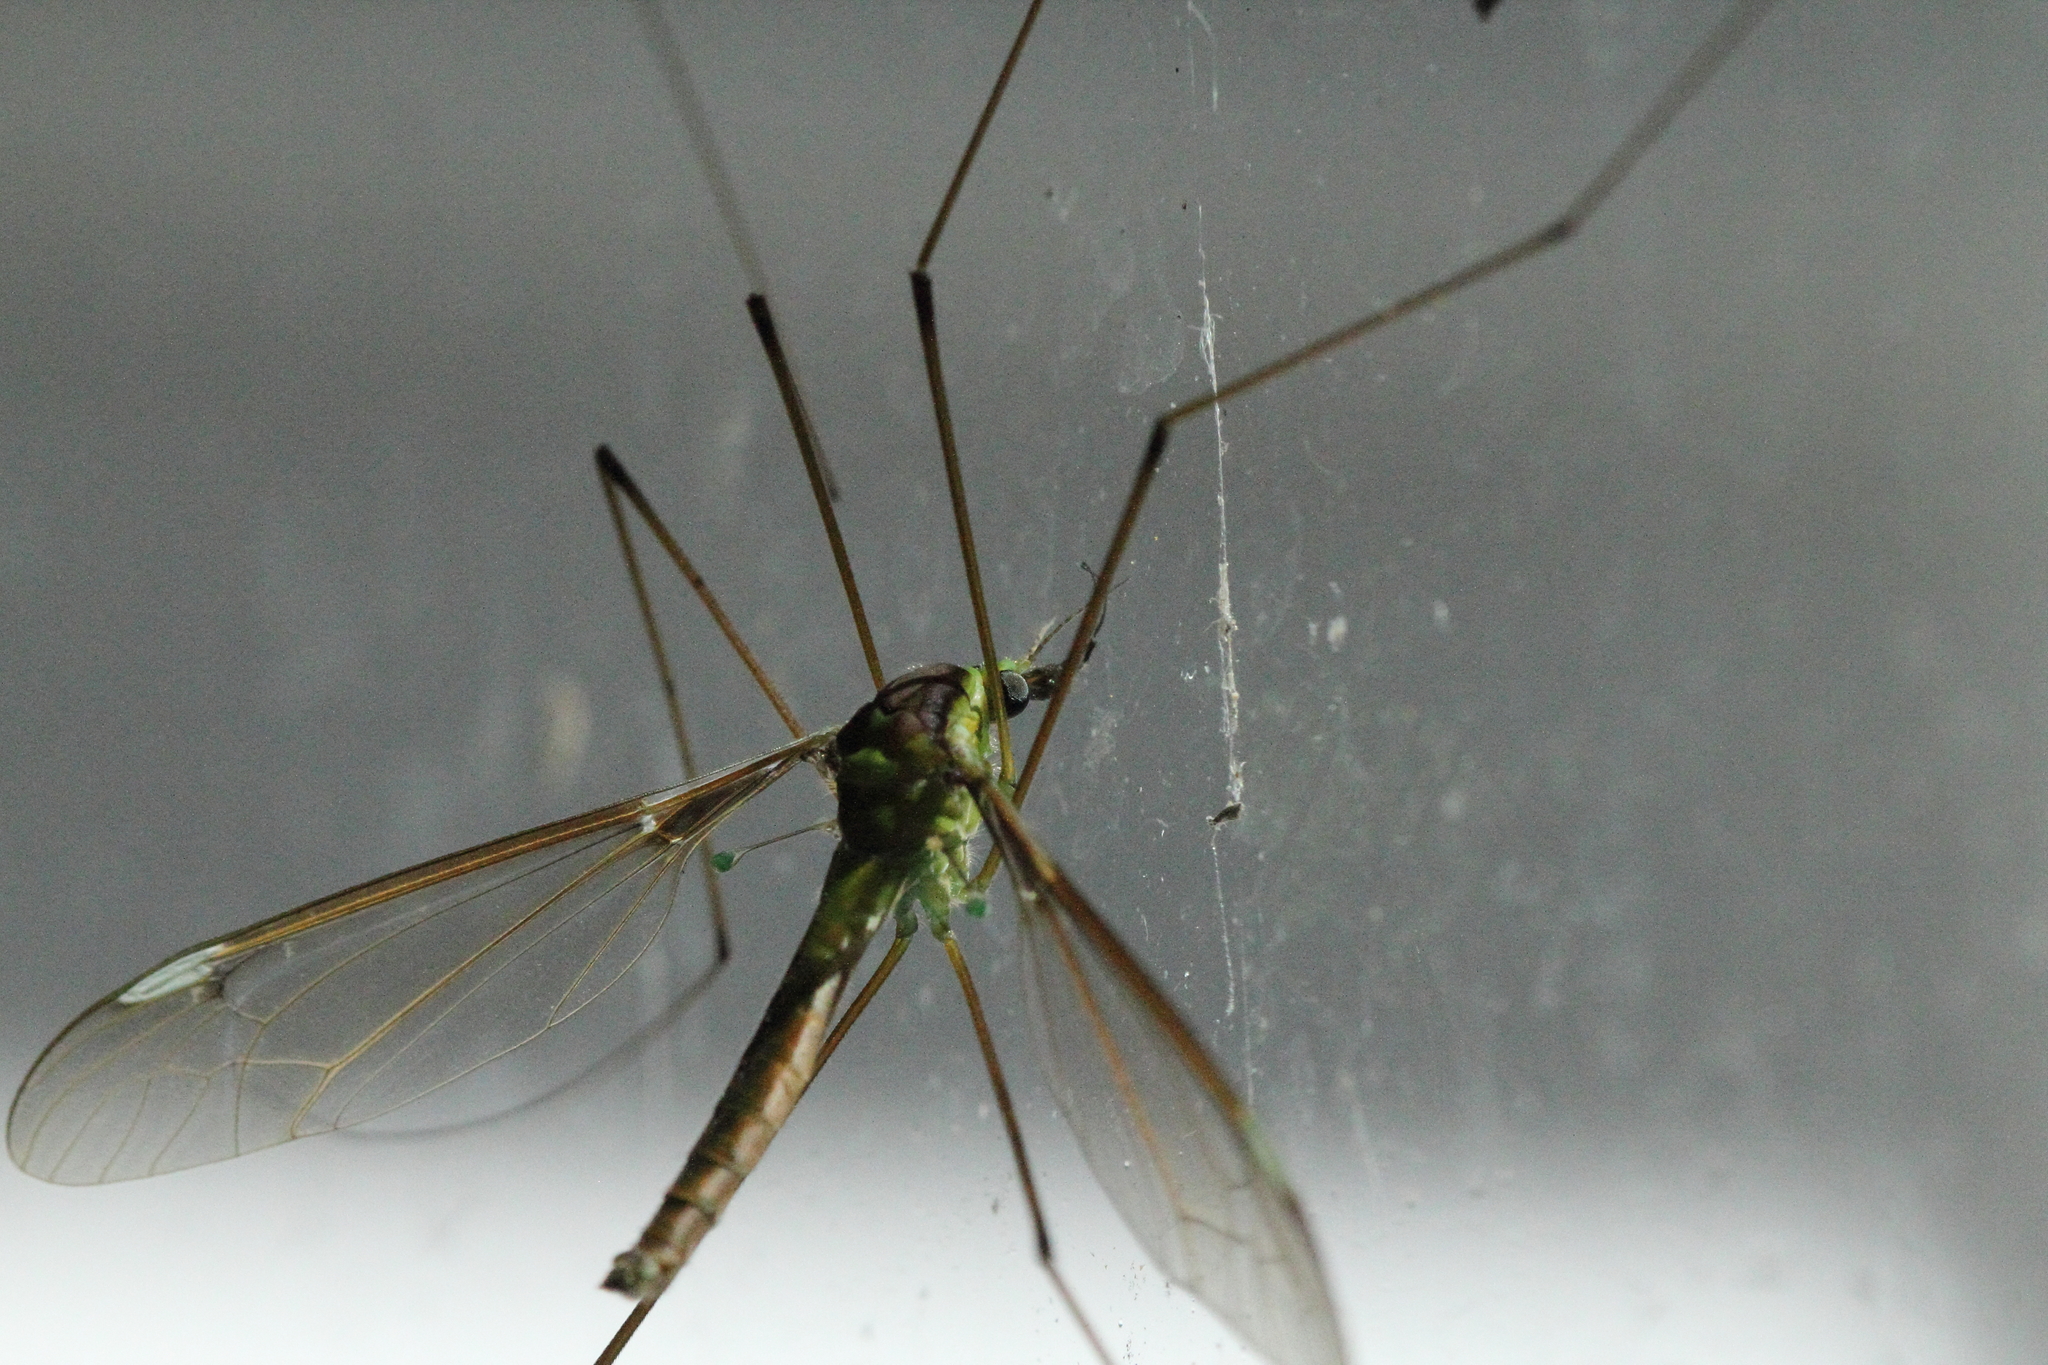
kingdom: Animalia
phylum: Arthropoda
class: Insecta
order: Diptera
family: Tipulidae
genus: Leptotarsus
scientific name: Leptotarsus albistigma
